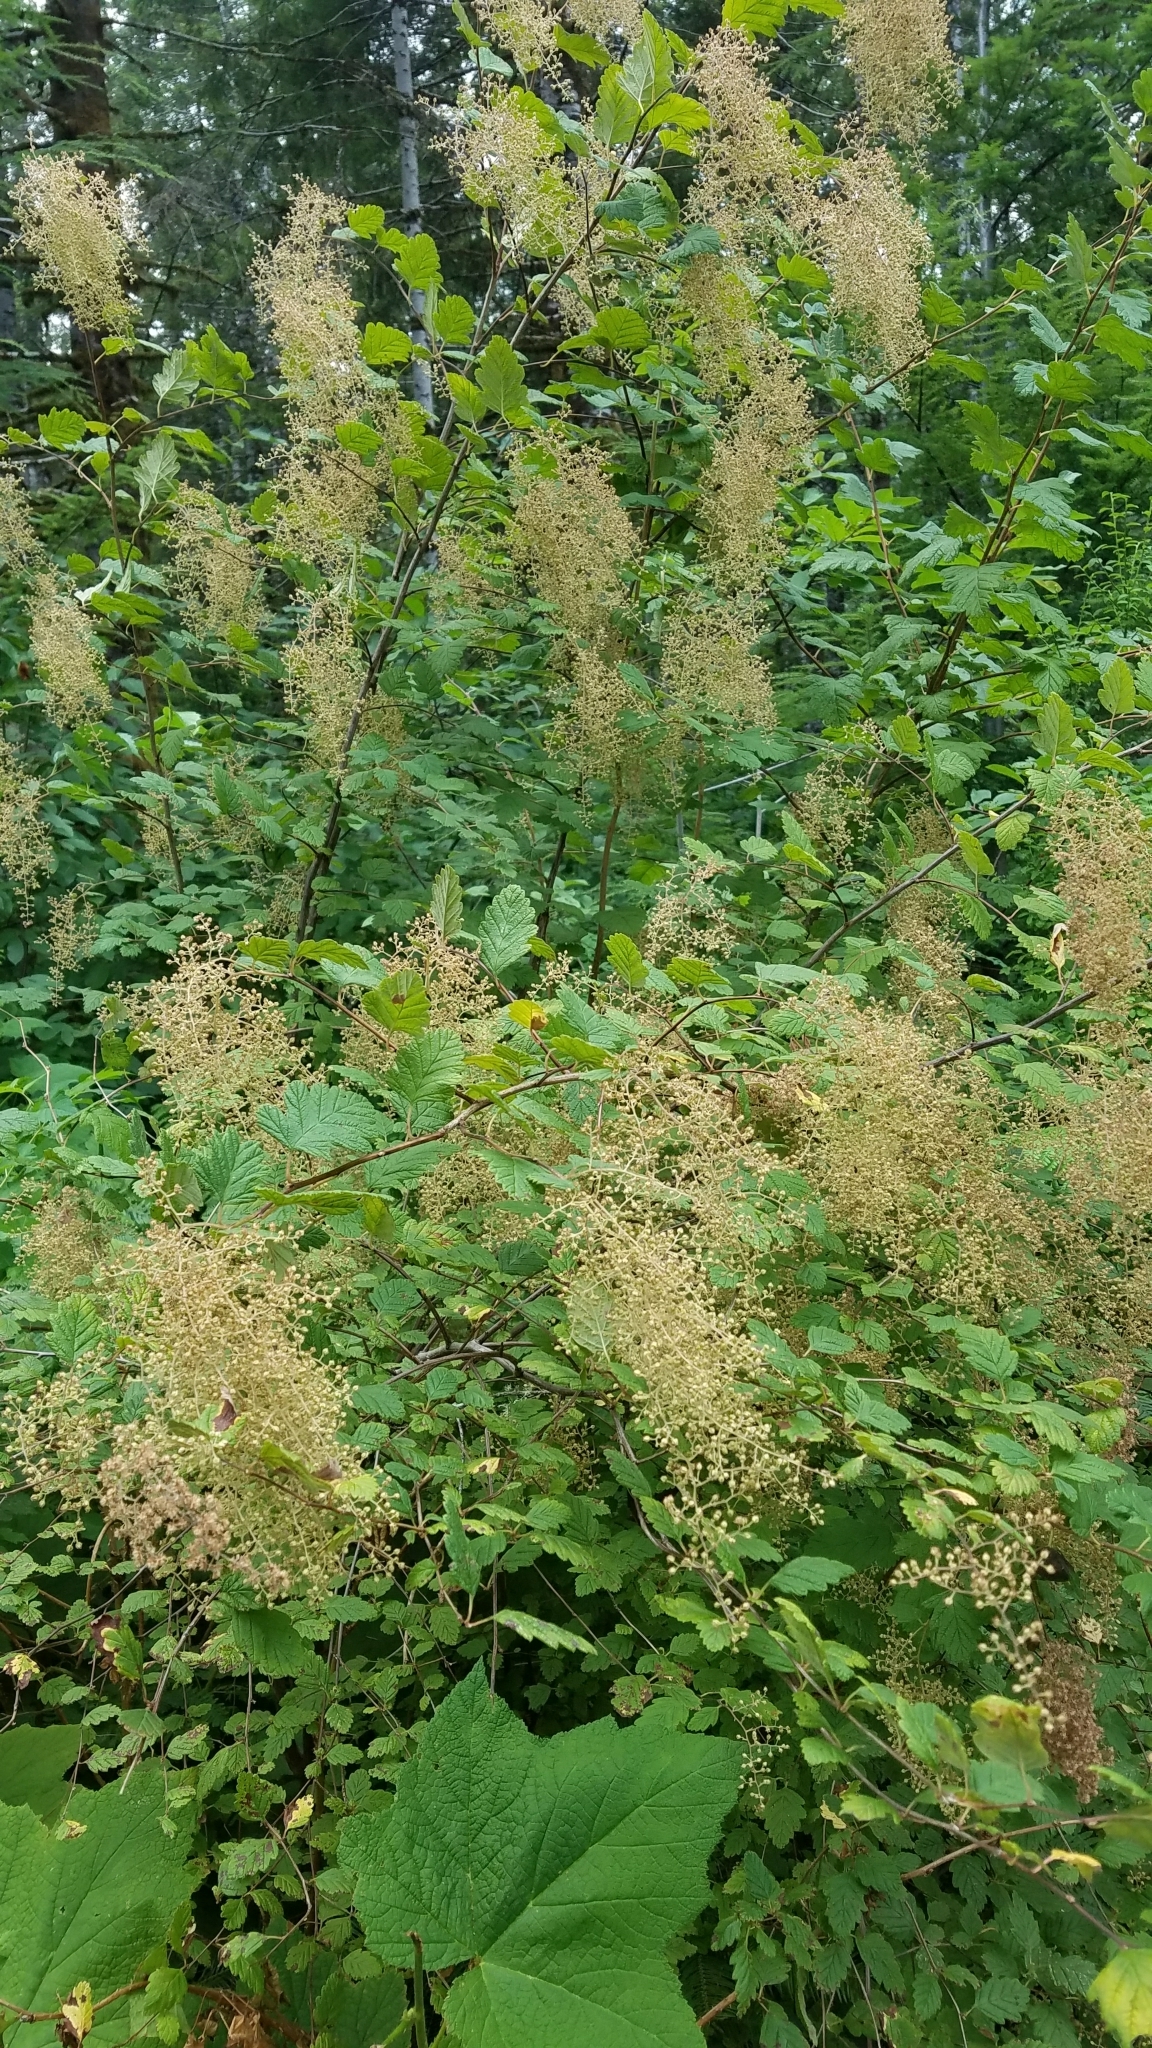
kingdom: Plantae
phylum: Tracheophyta
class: Magnoliopsida
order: Rosales
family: Rosaceae
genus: Holodiscus
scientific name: Holodiscus discolor
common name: Oceanspray
